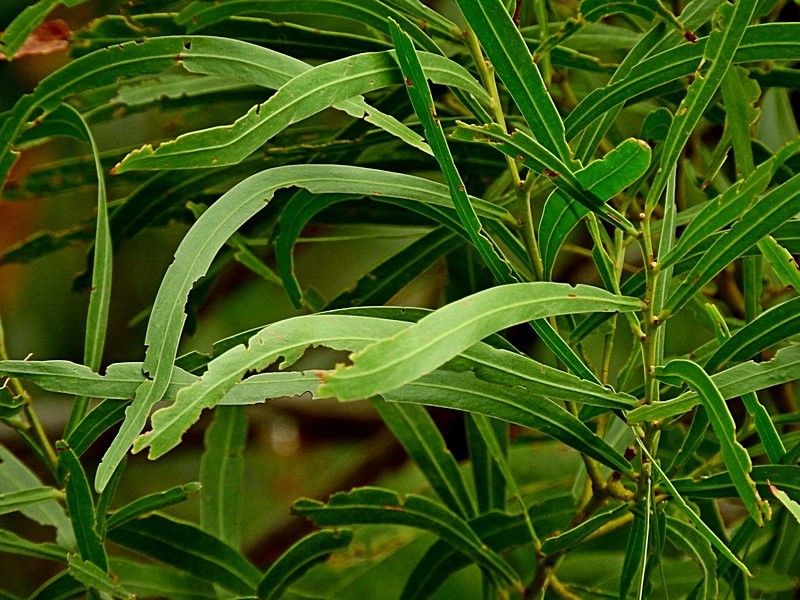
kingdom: Plantae
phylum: Tracheophyta
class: Magnoliopsida
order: Fabales
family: Fabaceae
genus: Acacia
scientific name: Acacia mabellae
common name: Black wattle
